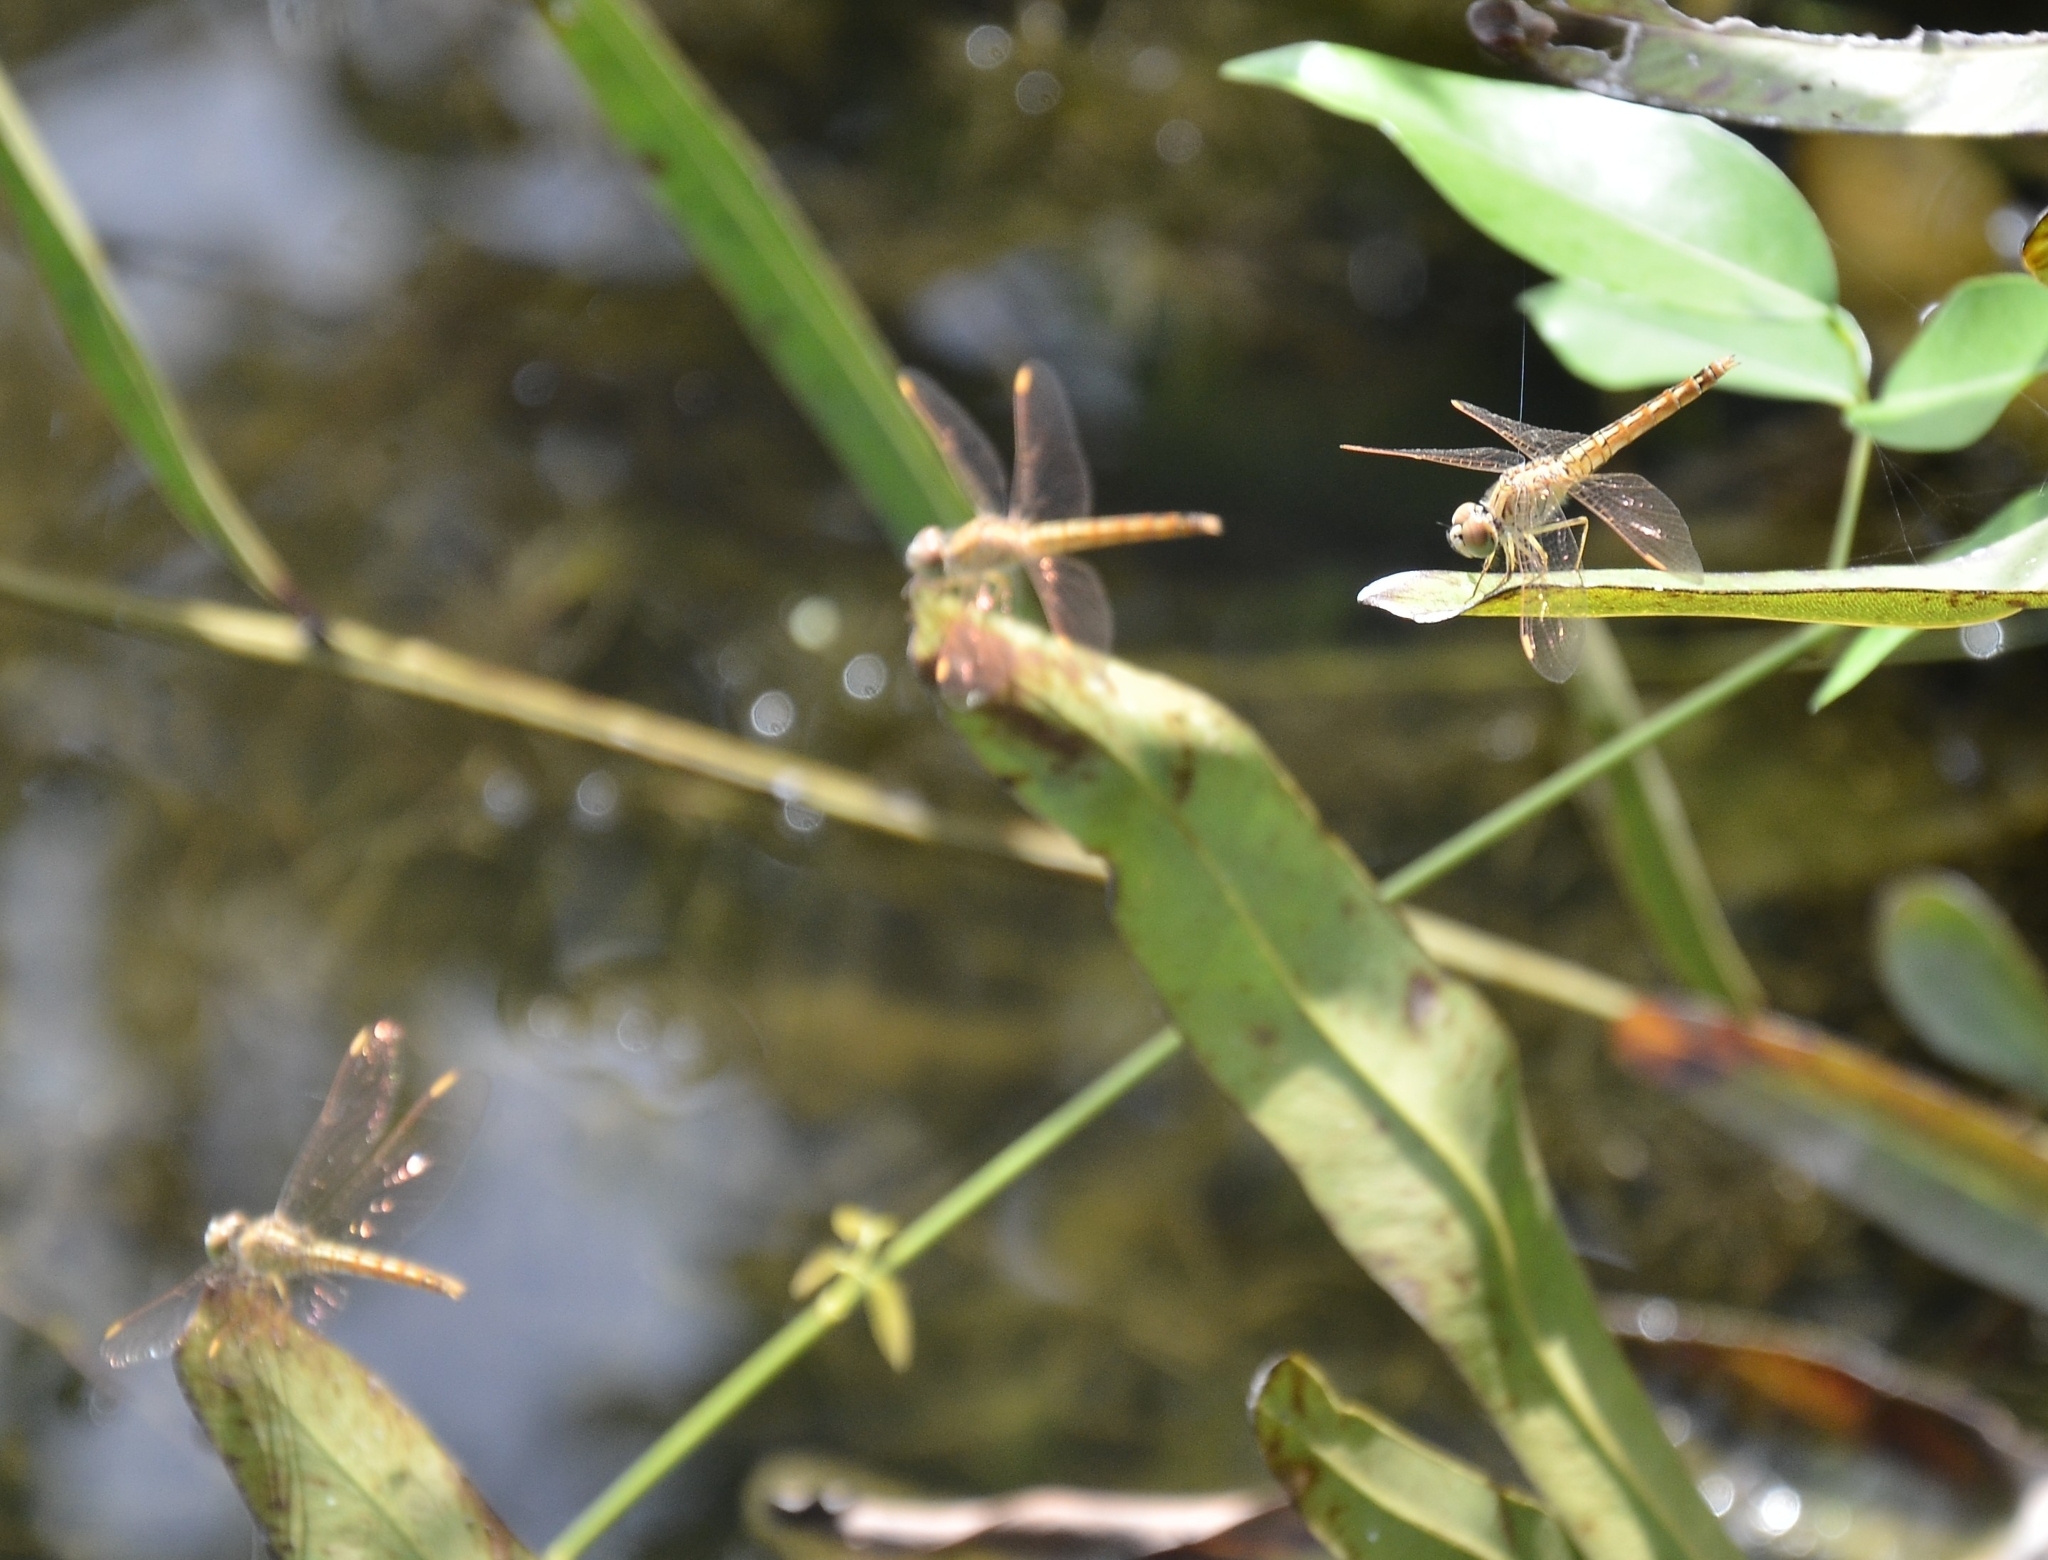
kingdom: Animalia
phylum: Arthropoda
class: Insecta
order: Odonata
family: Libellulidae
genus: Brachythemis
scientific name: Brachythemis contaminata
